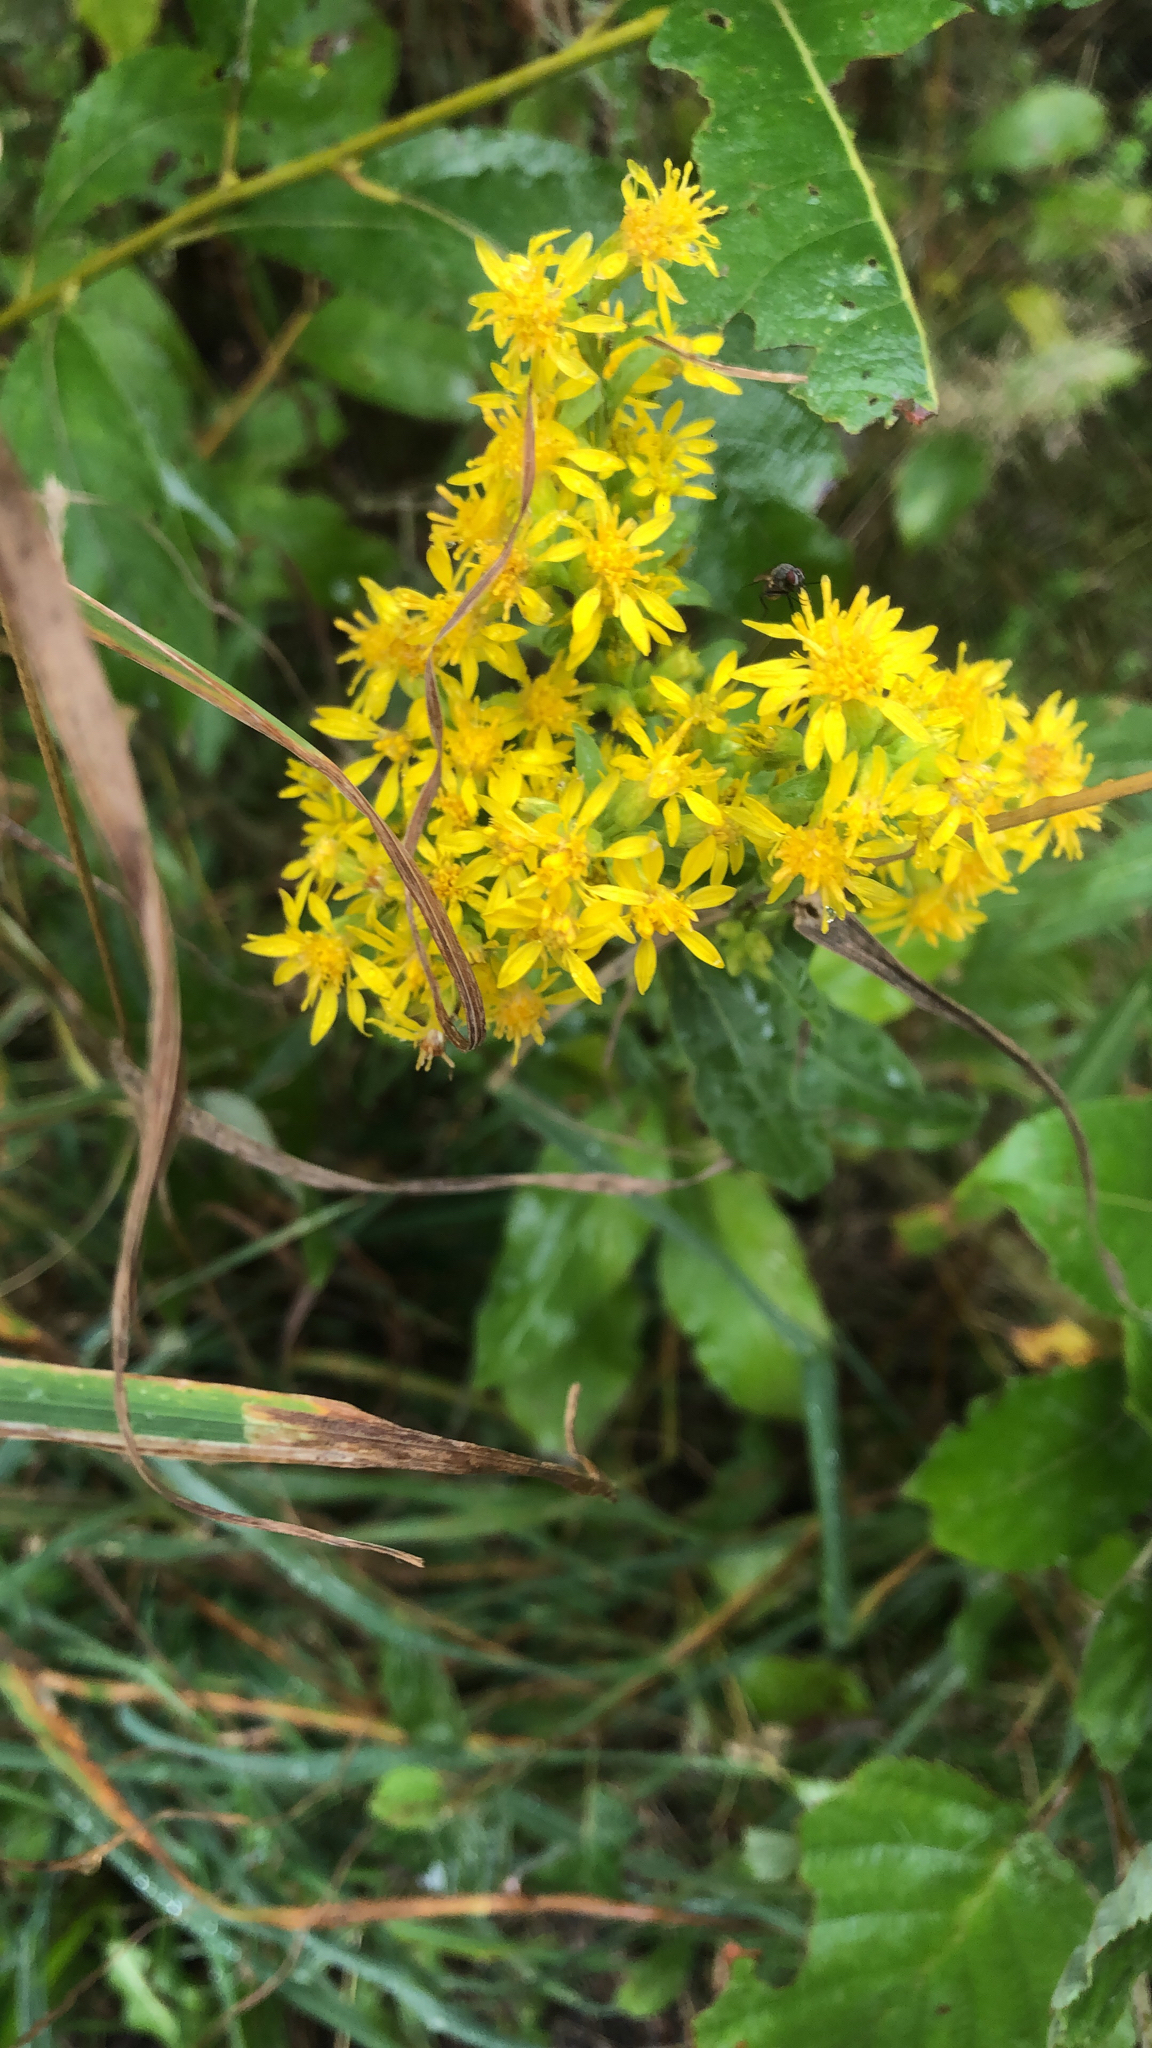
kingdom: Plantae
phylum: Tracheophyta
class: Magnoliopsida
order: Asterales
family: Asteraceae
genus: Solidago
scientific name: Solidago virgaurea
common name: Goldenrod
